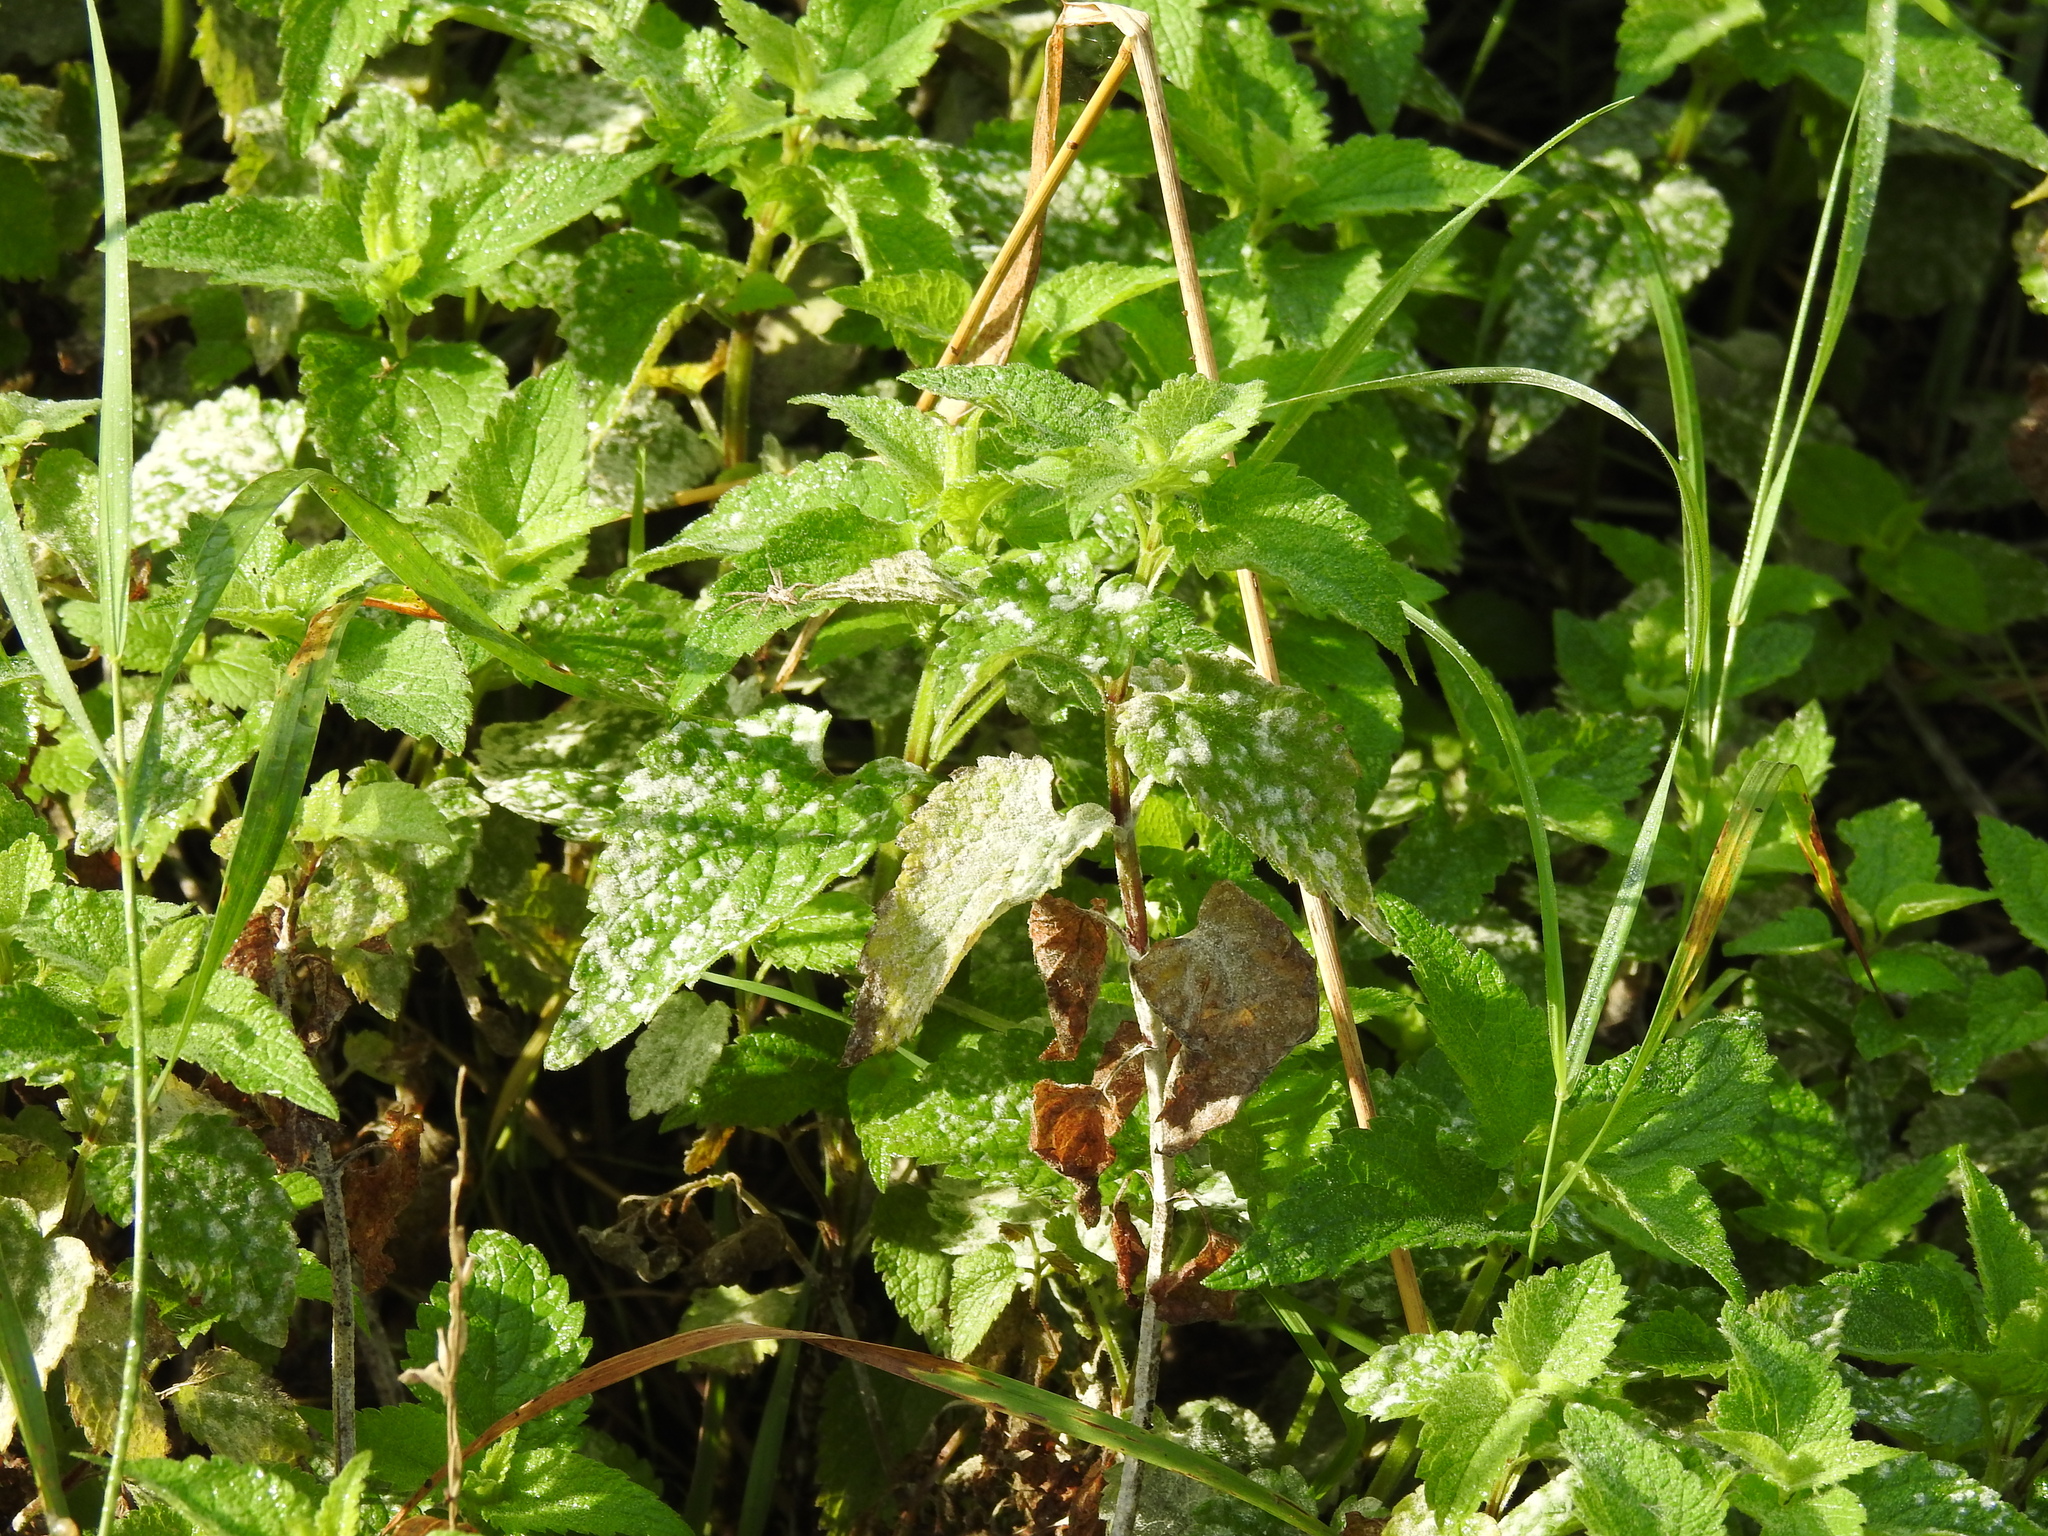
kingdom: Fungi
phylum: Ascomycota
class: Leotiomycetes
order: Helotiales
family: Erysiphaceae
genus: Neoerysiphe
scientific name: Neoerysiphe galeopsidis
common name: Mint mildew
